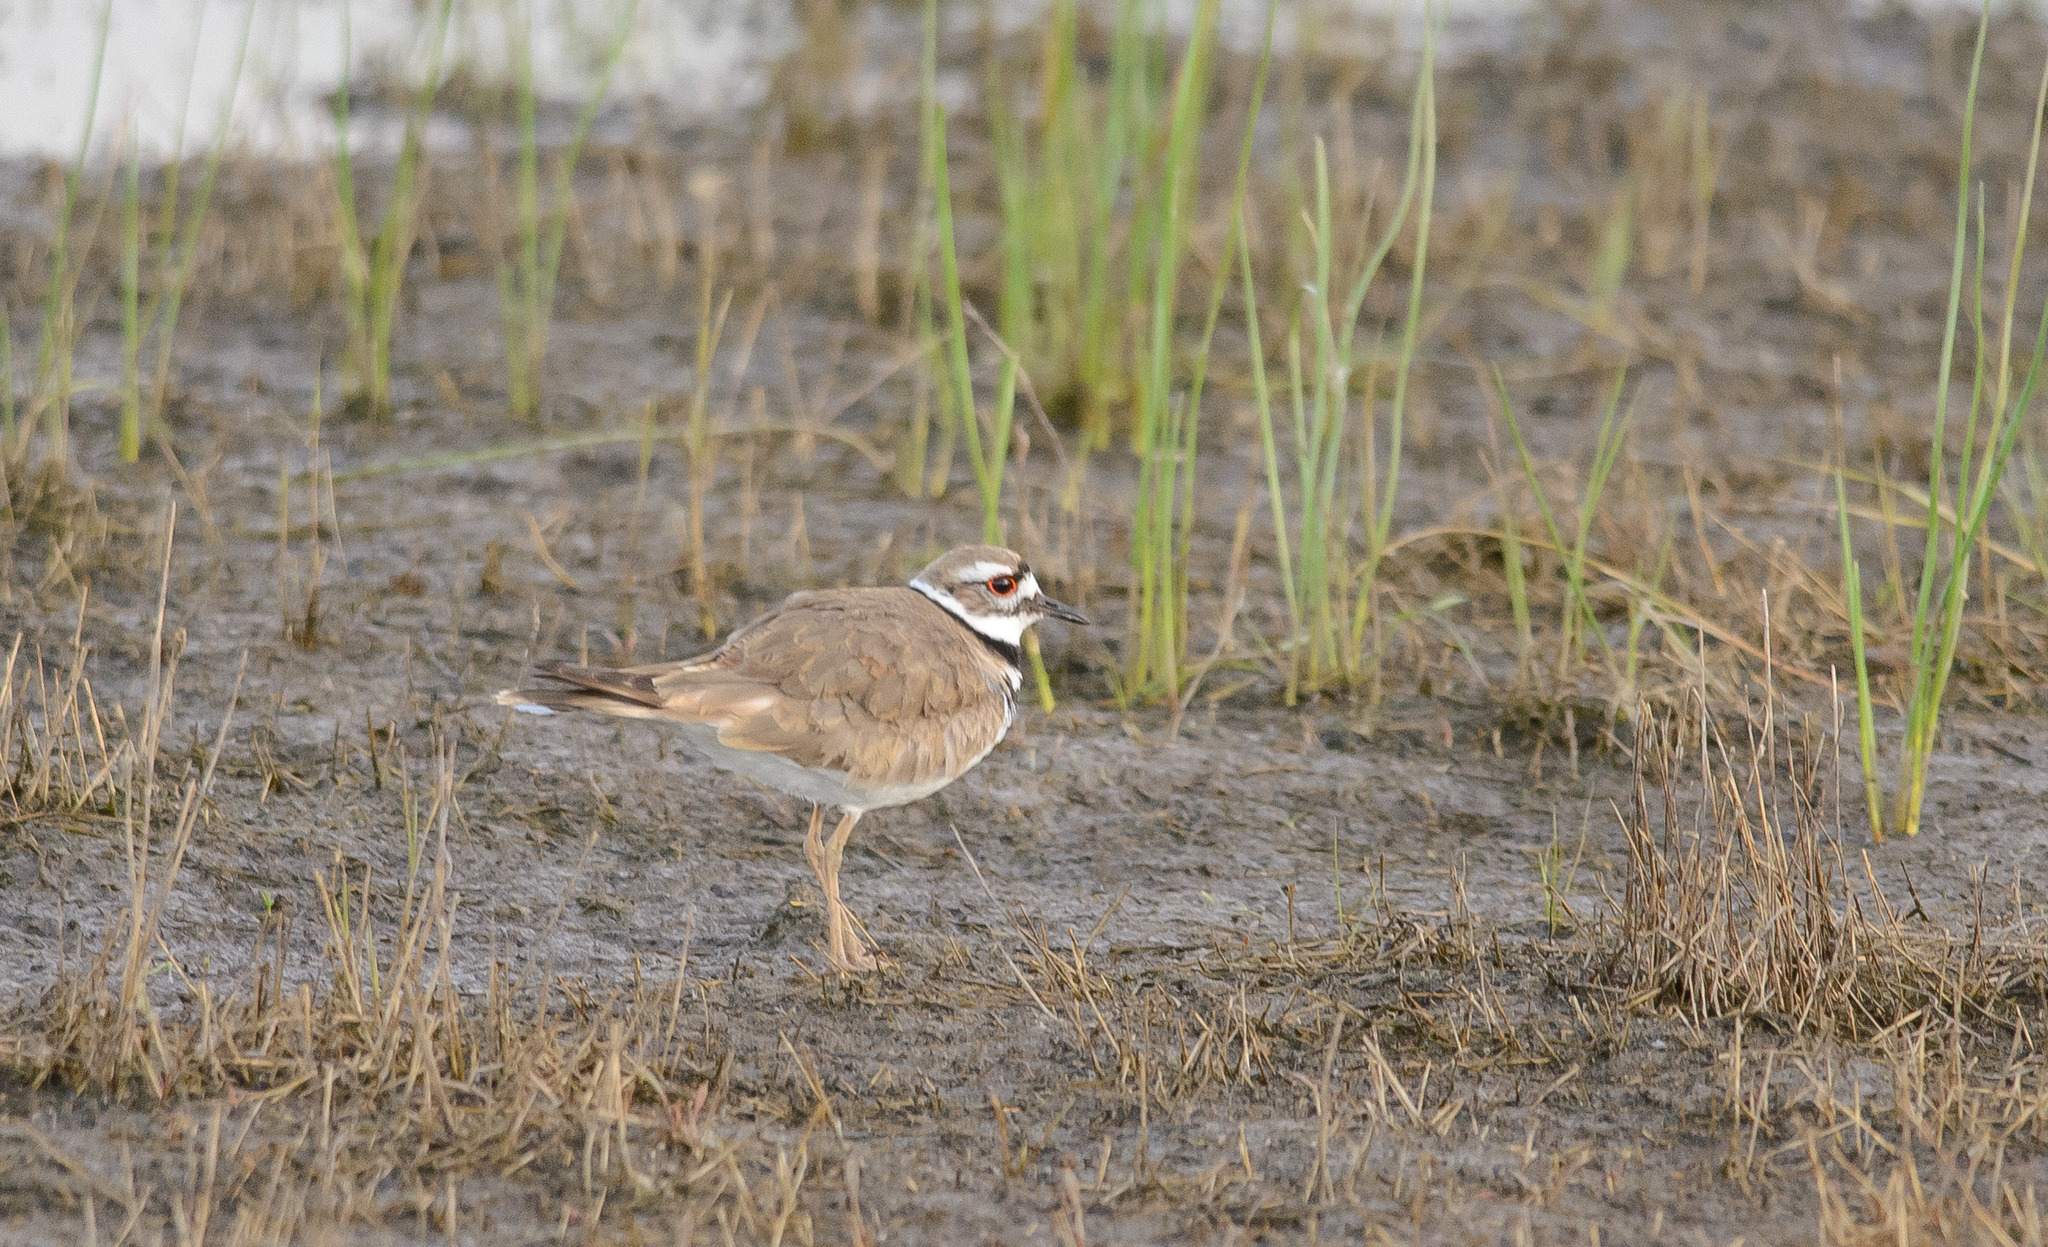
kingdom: Animalia
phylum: Chordata
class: Aves
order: Charadriiformes
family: Charadriidae
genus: Charadrius
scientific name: Charadrius vociferus
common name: Killdeer
